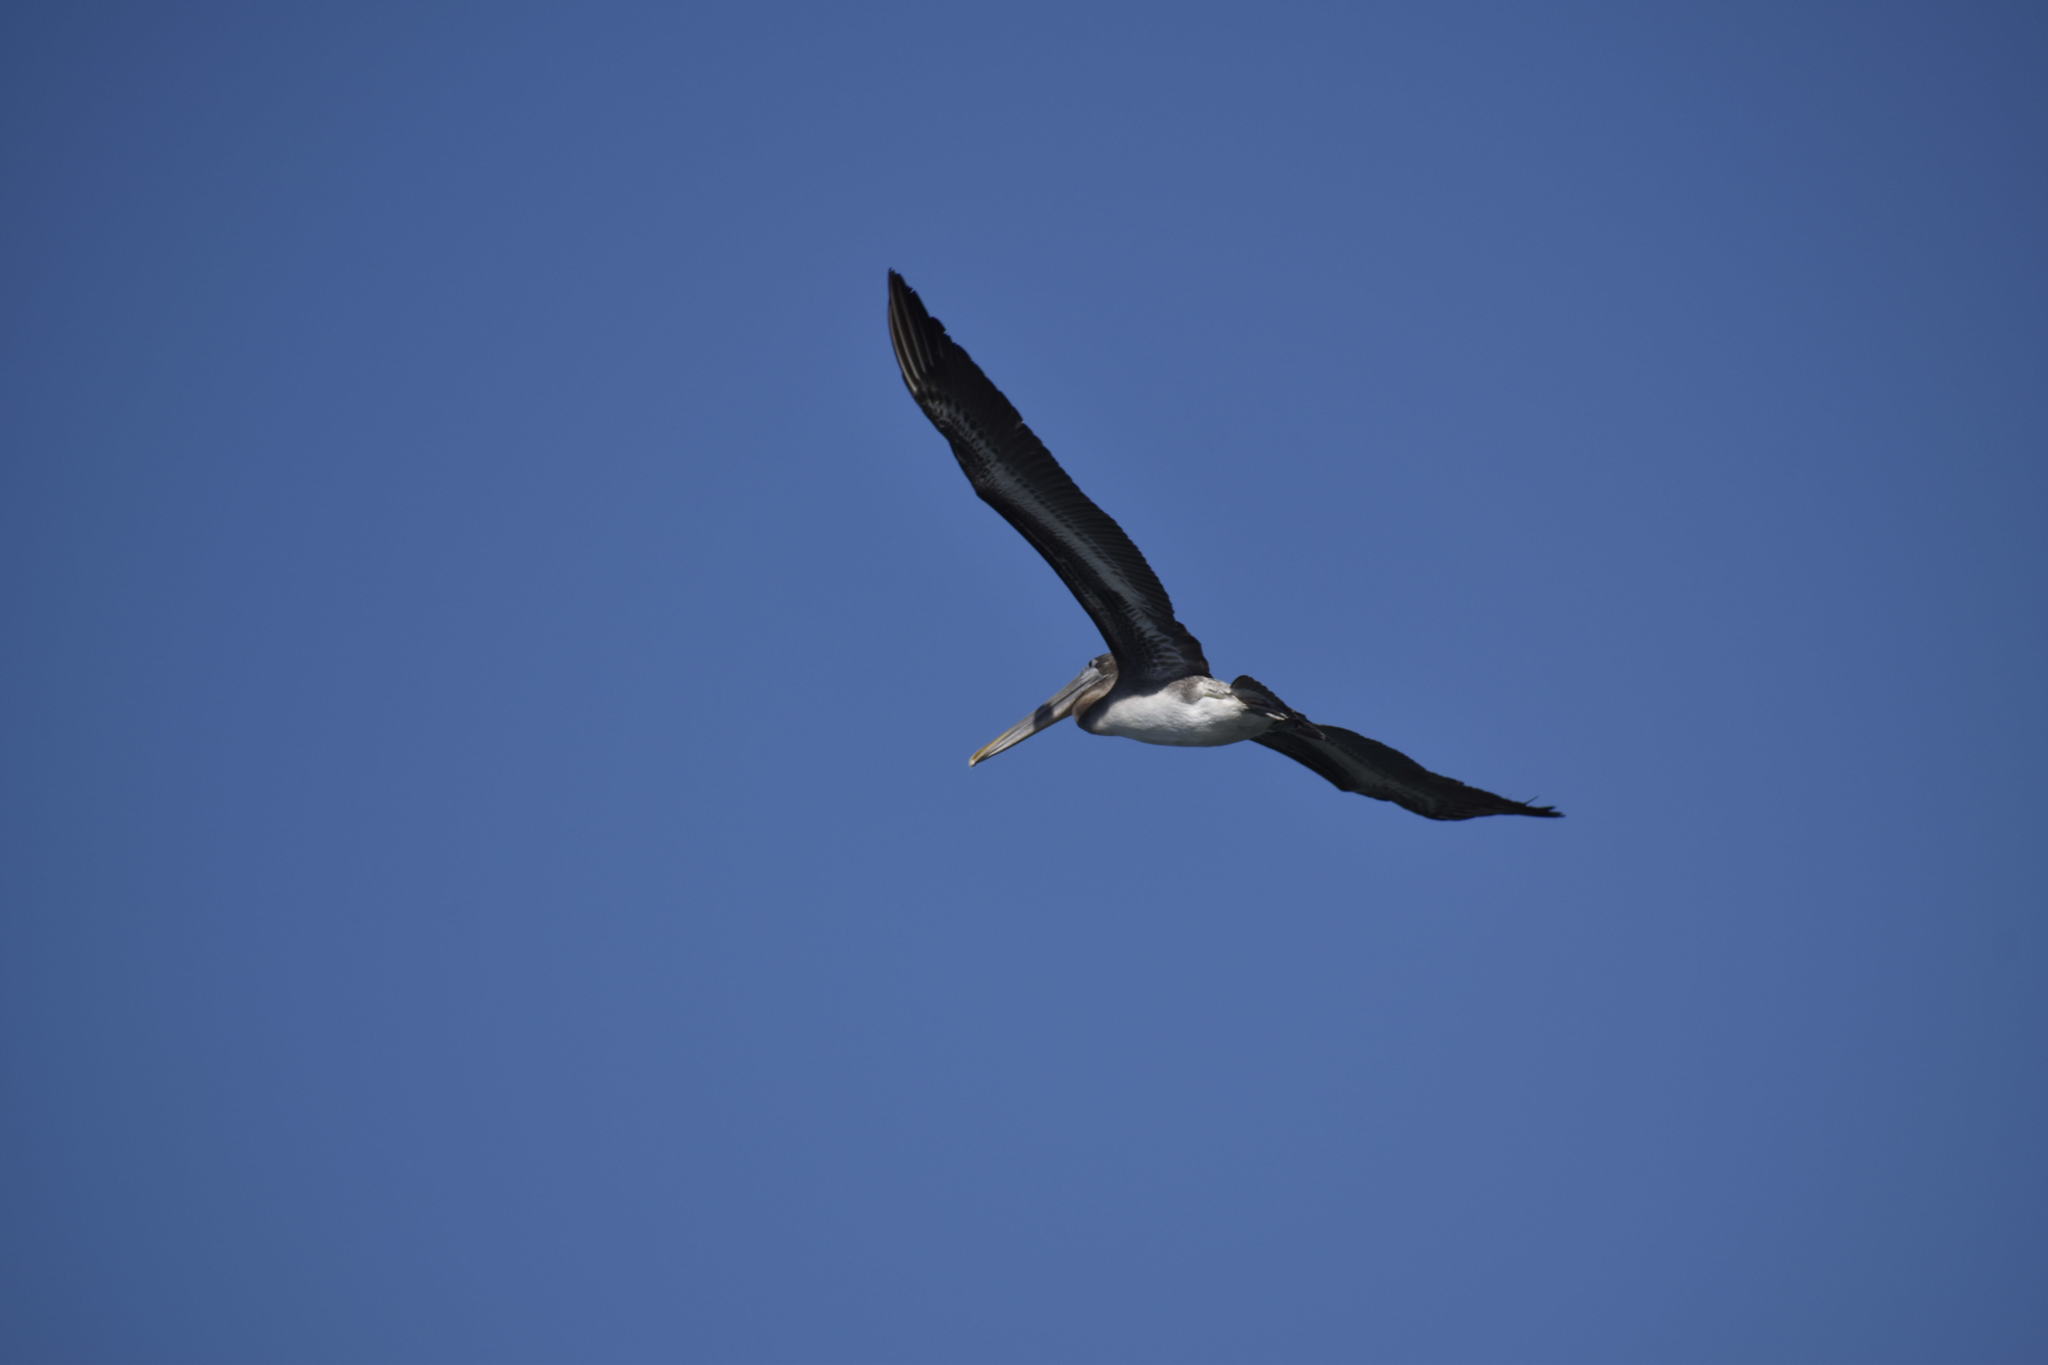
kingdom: Animalia
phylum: Chordata
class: Aves
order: Pelecaniformes
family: Pelecanidae
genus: Pelecanus
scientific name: Pelecanus occidentalis
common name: Brown pelican
